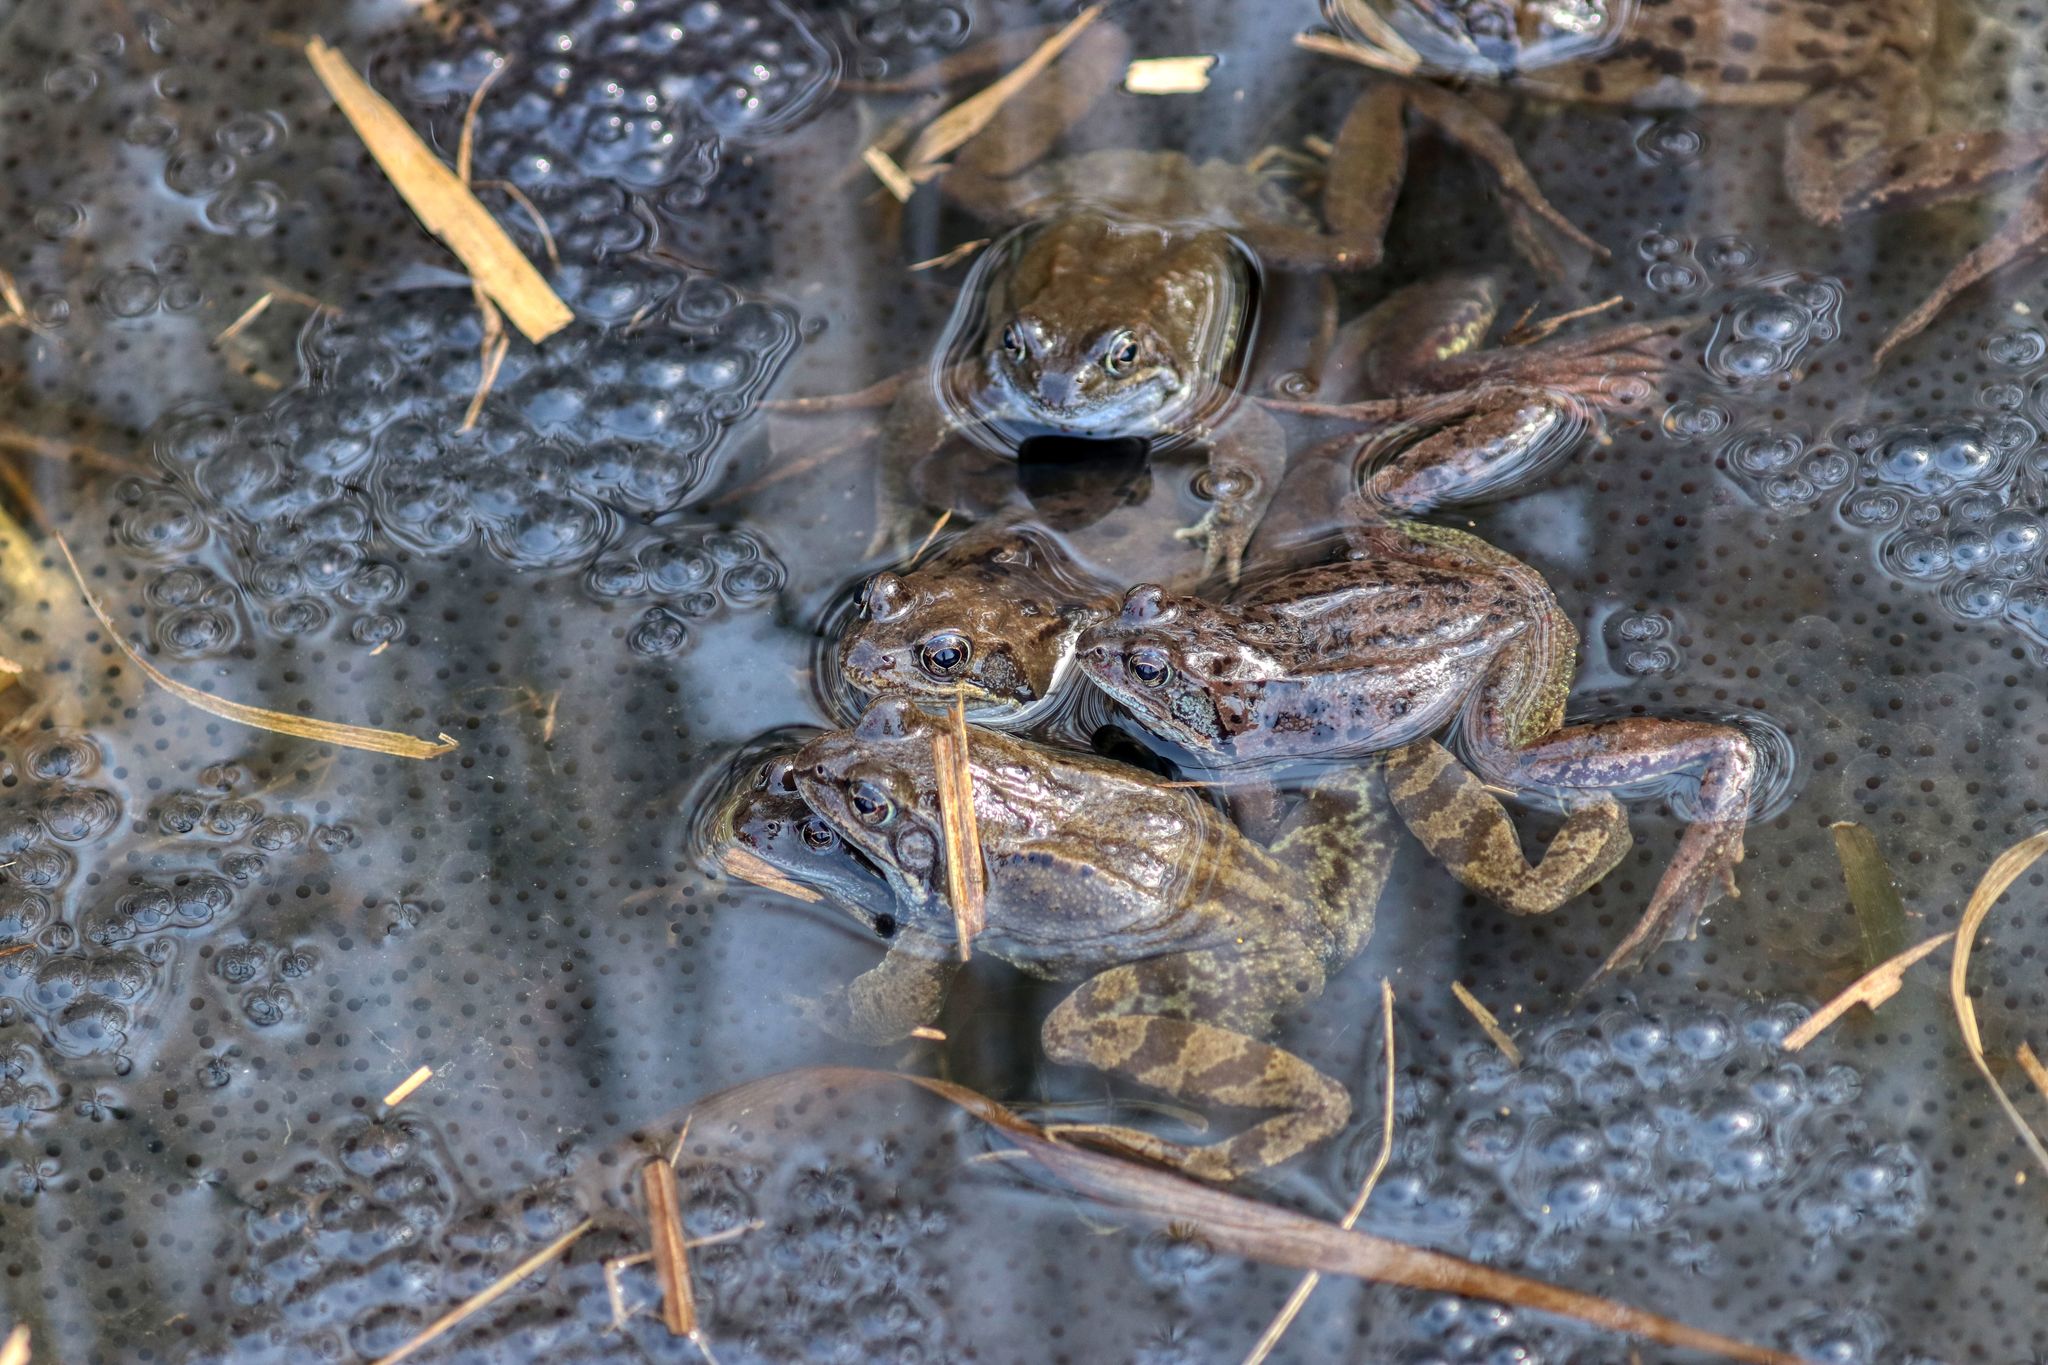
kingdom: Animalia
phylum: Chordata
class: Amphibia
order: Anura
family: Ranidae
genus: Rana
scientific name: Rana temporaria
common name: Common frog
